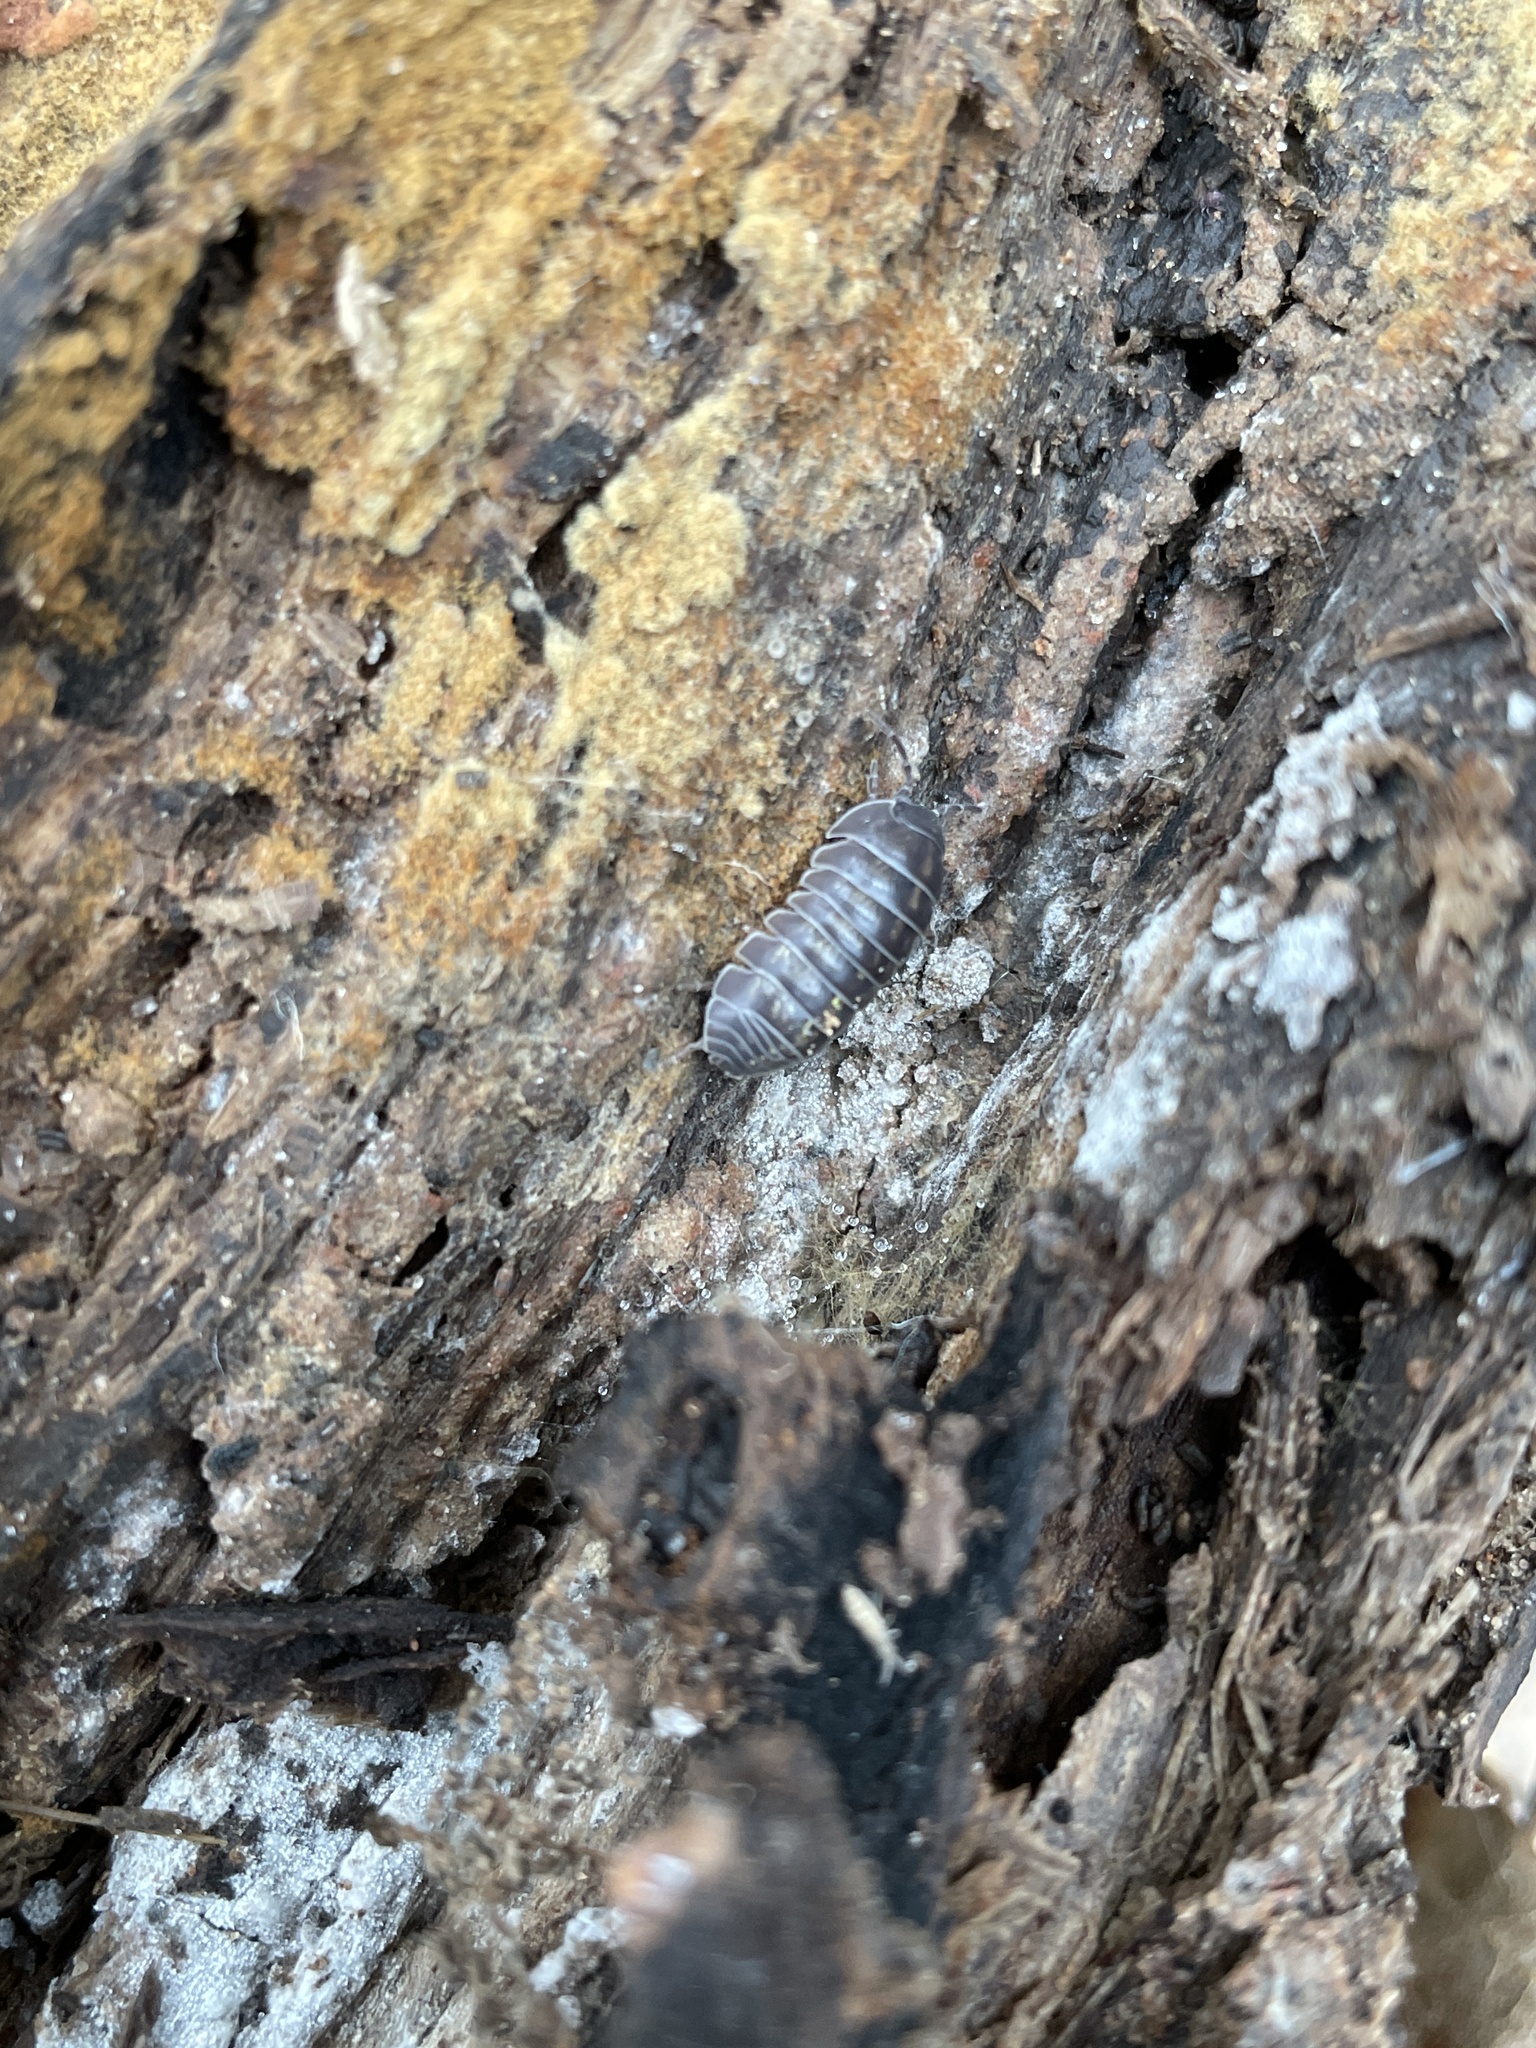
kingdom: Animalia
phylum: Arthropoda
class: Malacostraca
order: Isopoda
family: Armadillidiidae
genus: Armadillidium
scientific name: Armadillidium vulgare
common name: Common pill woodlouse
